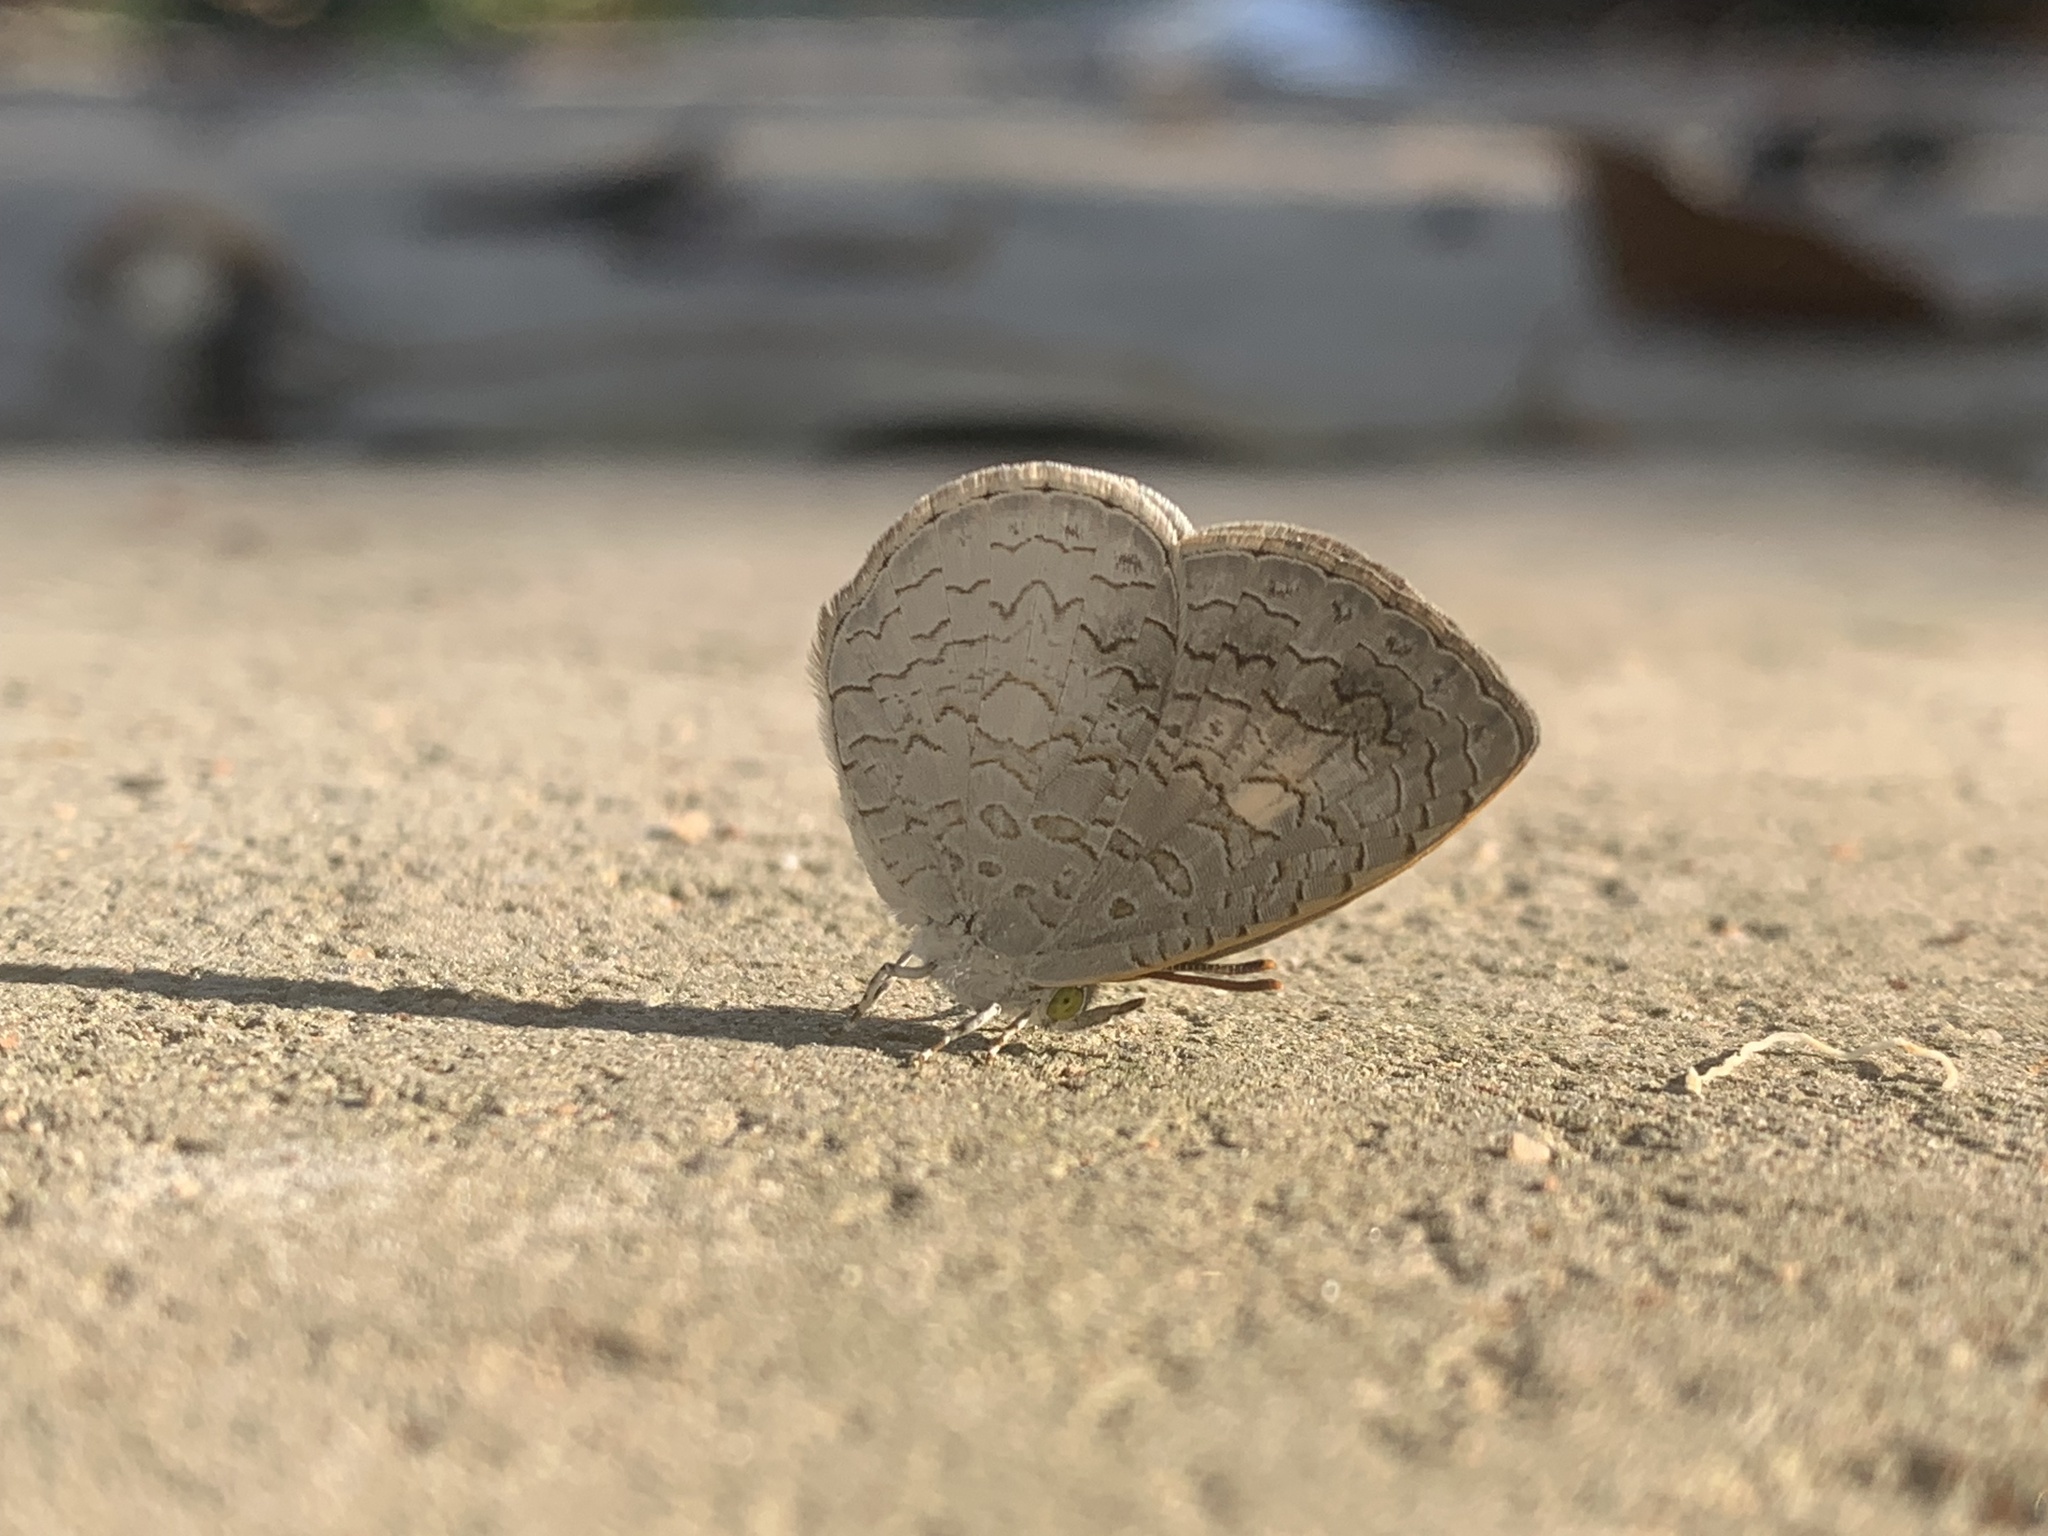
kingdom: Animalia
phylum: Arthropoda
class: Insecta
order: Lepidoptera
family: Lycaenidae
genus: Spalgis
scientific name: Spalgis epius
